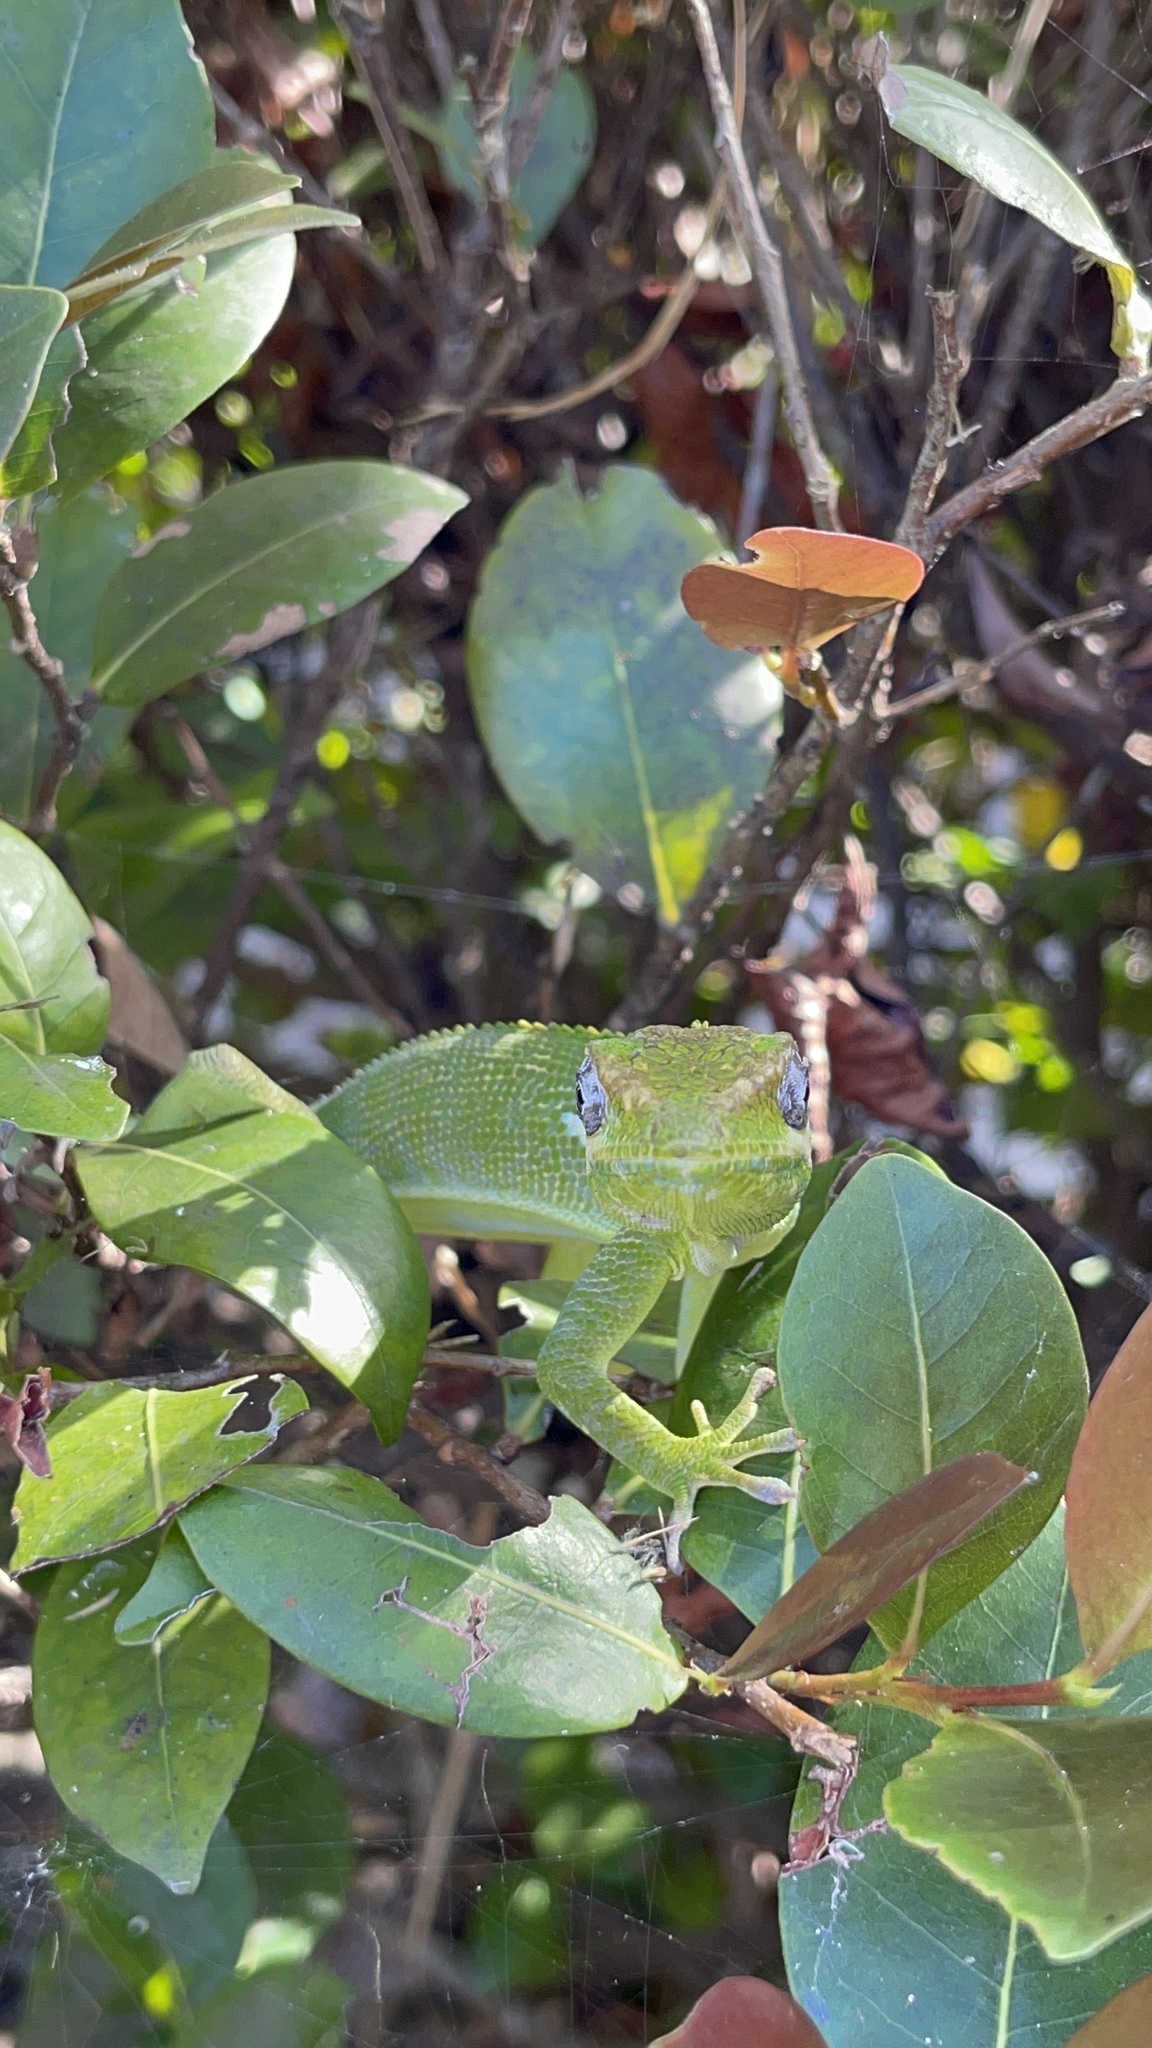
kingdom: Animalia
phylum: Chordata
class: Squamata
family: Dactyloidae
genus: Anolis
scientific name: Anolis equestris
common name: Knight anole
